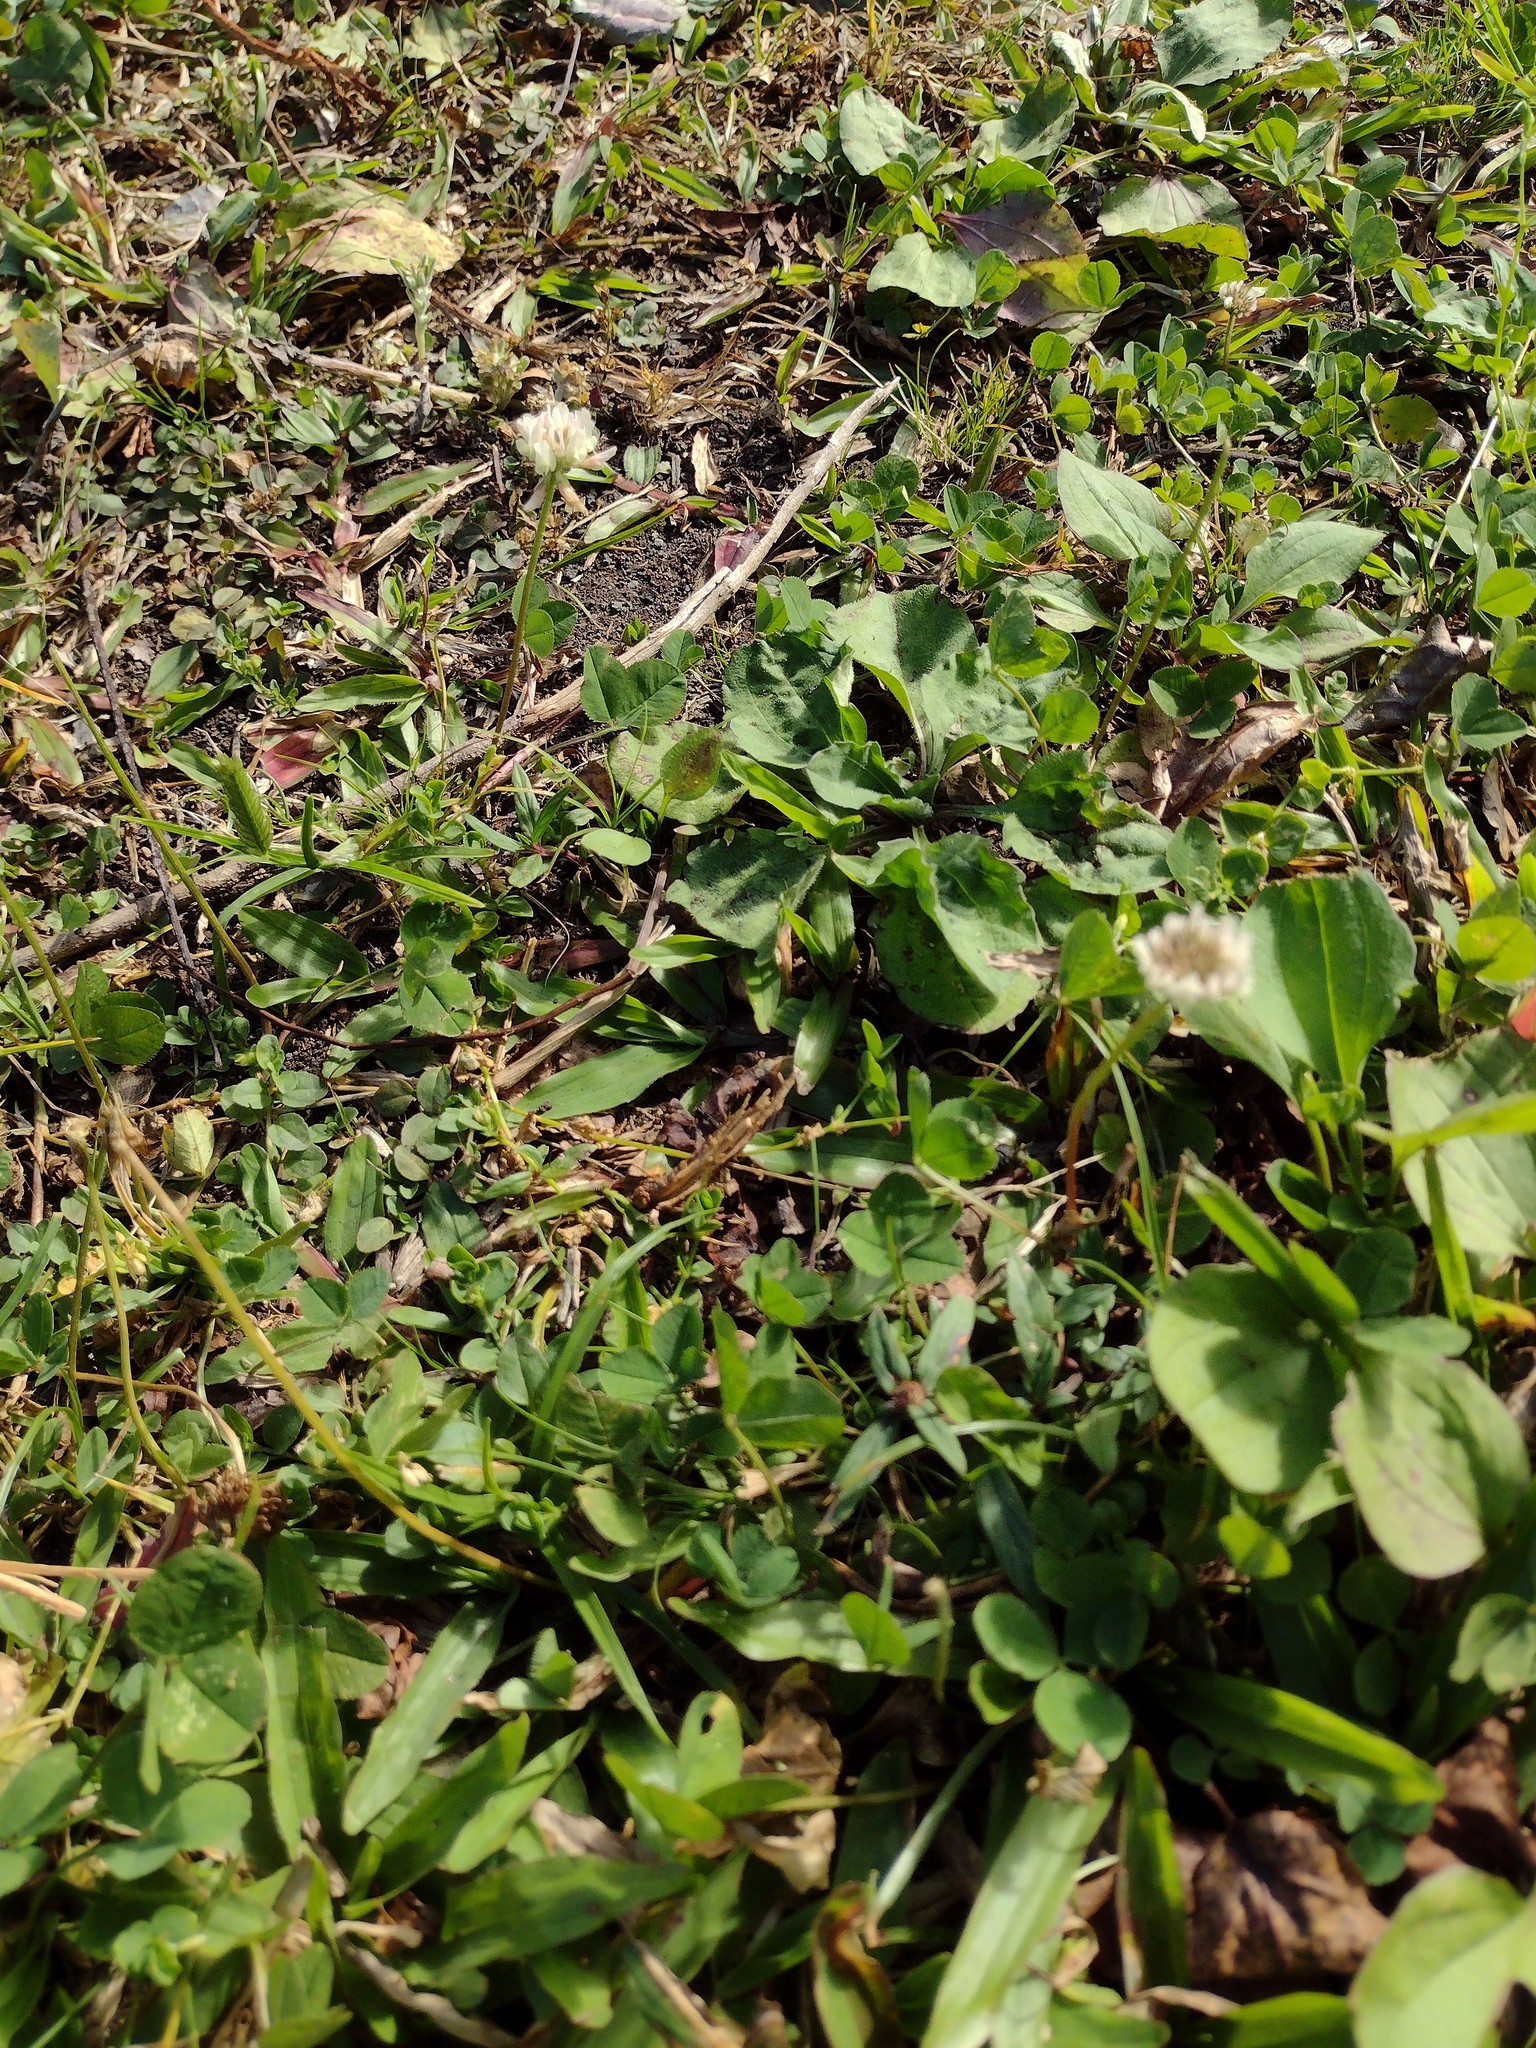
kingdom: Plantae
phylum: Tracheophyta
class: Magnoliopsida
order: Fabales
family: Fabaceae
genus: Trifolium
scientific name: Trifolium repens
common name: White clover
